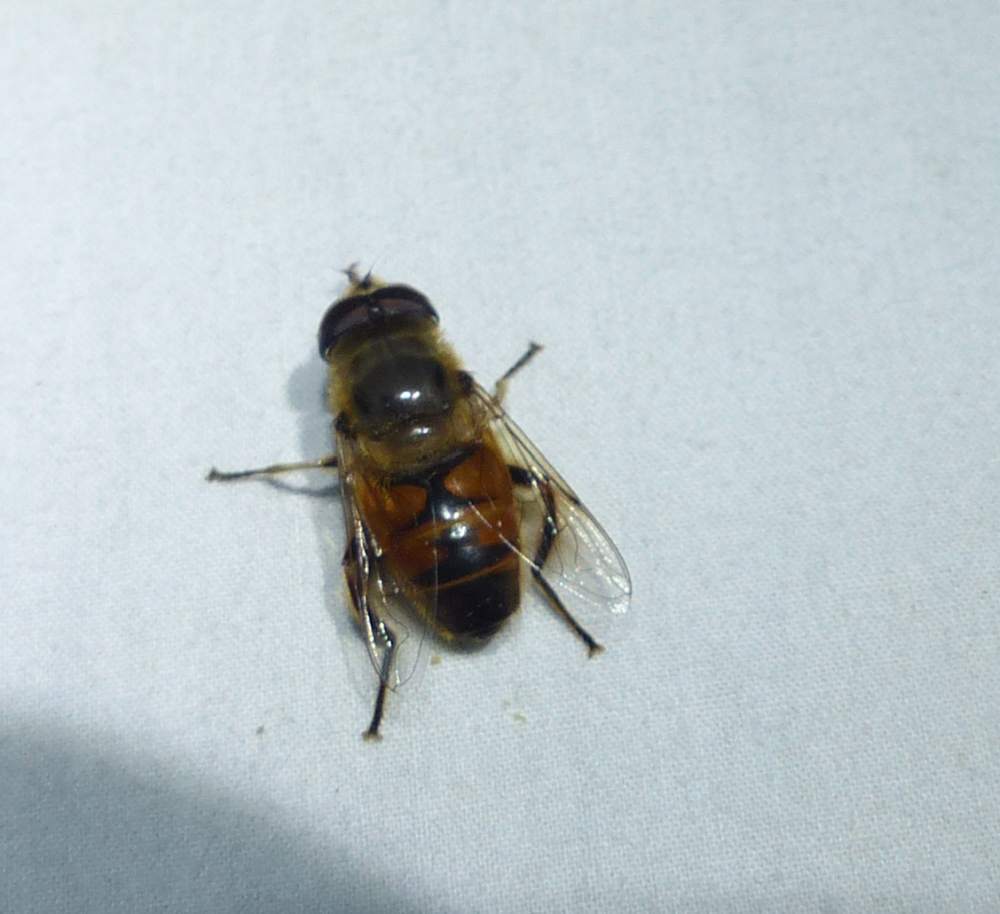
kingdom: Animalia
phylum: Arthropoda
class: Insecta
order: Diptera
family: Syrphidae
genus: Eristalis
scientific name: Eristalis tenax
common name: Drone fly
